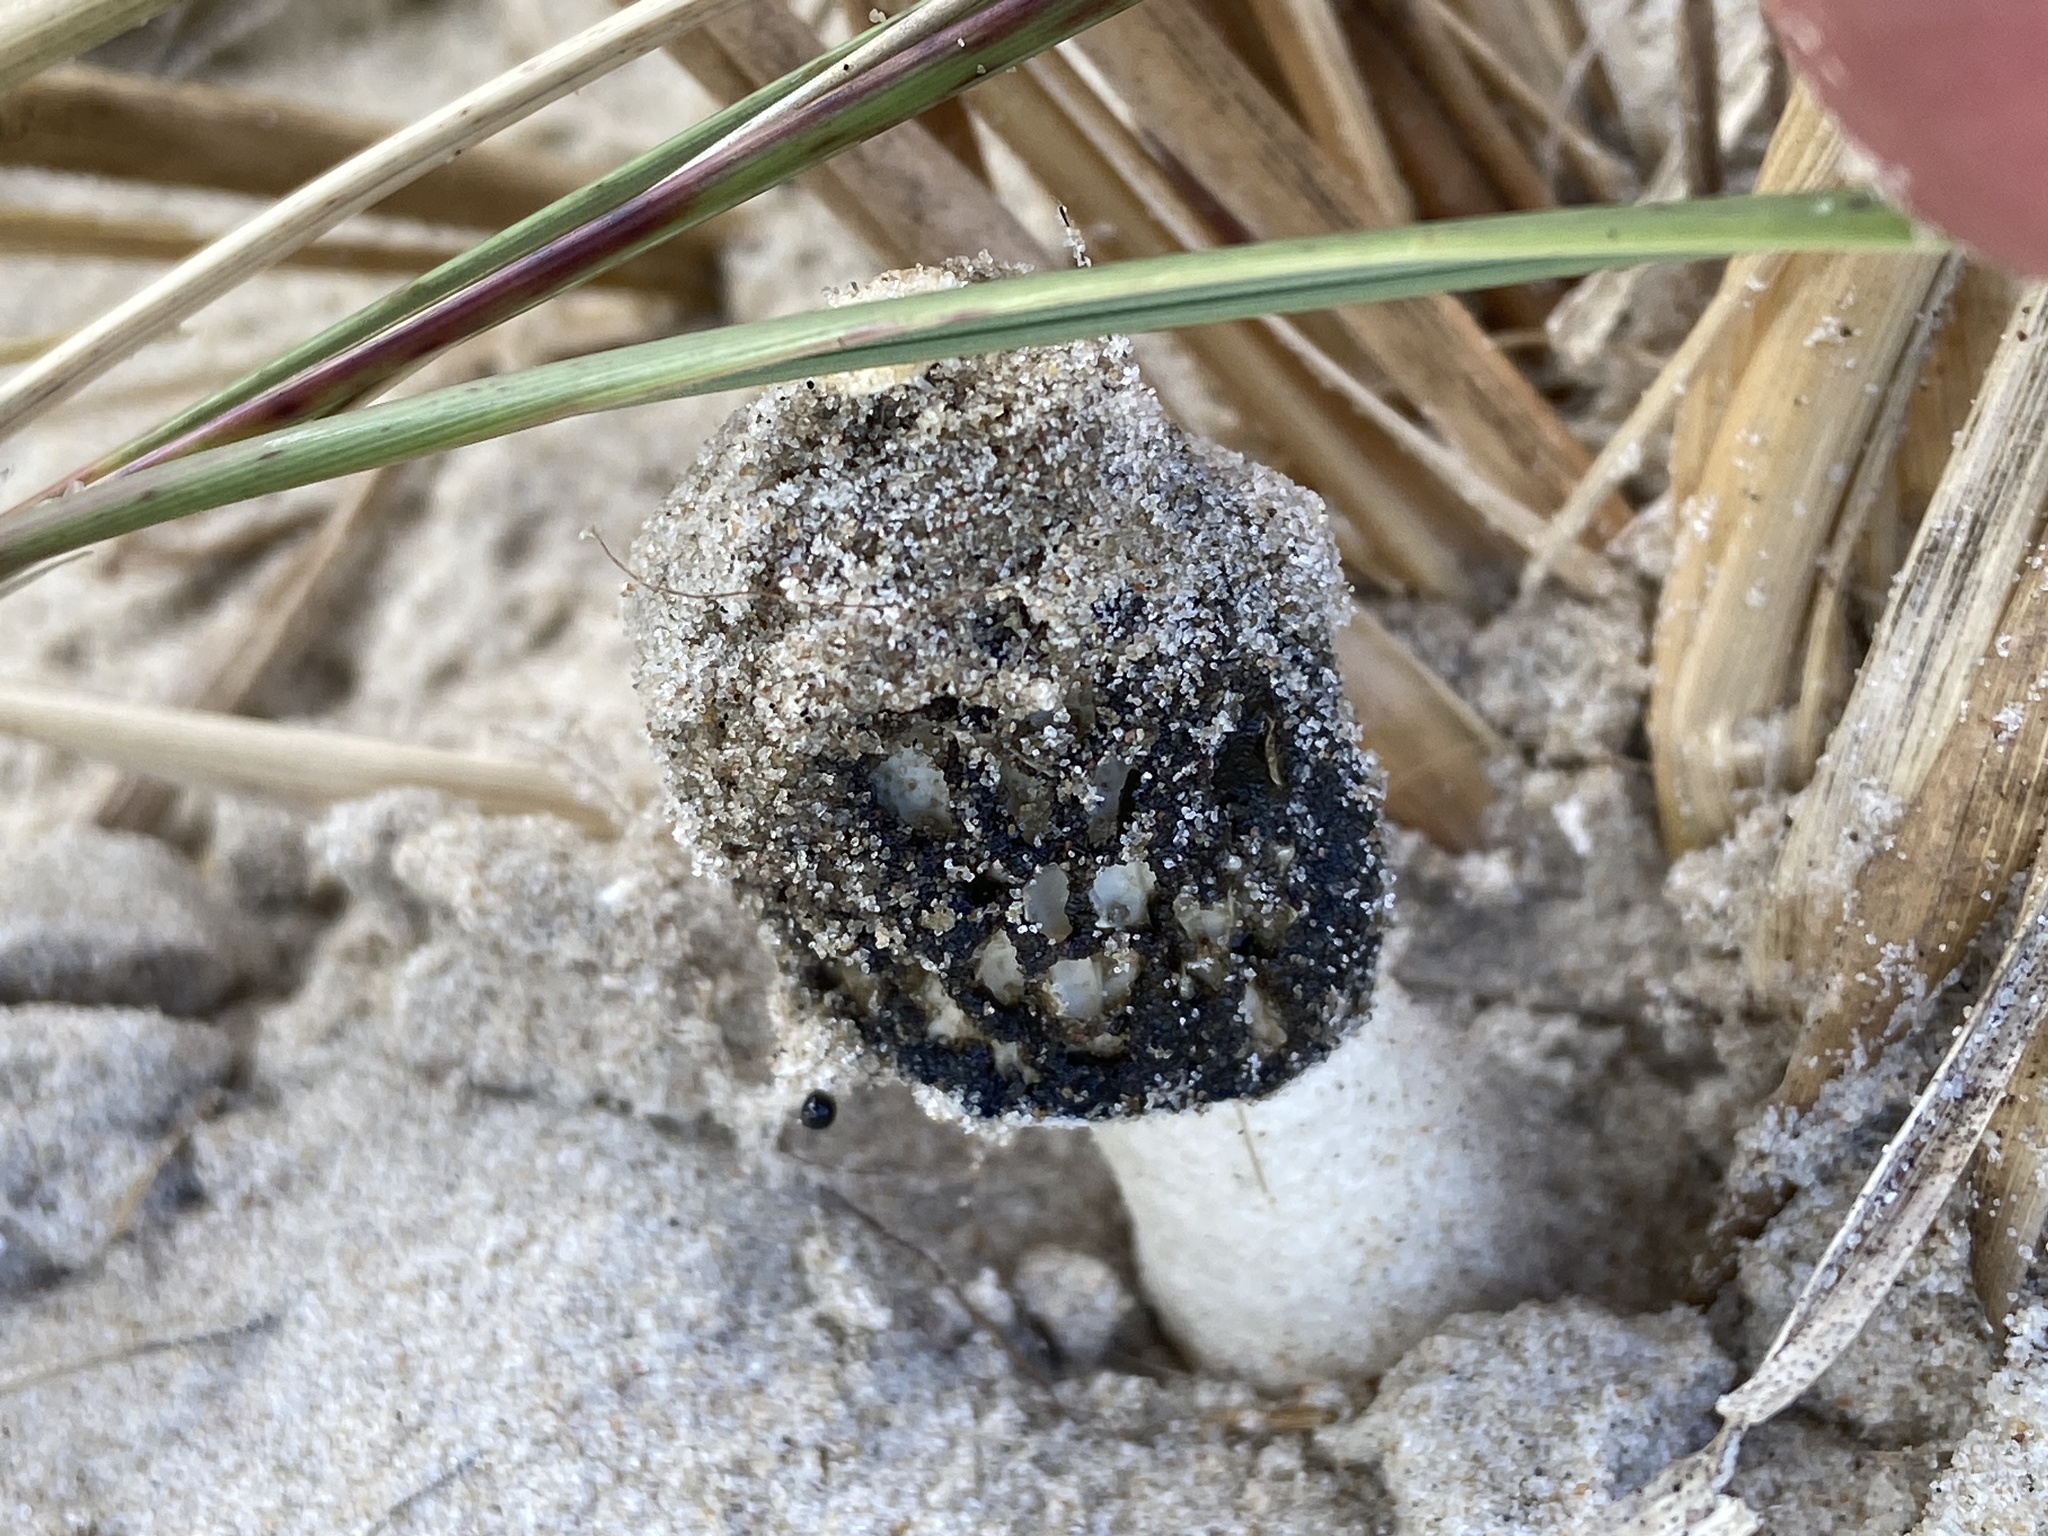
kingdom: Fungi
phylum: Basidiomycota
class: Agaricomycetes
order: Phallales
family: Phallaceae
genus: Phallus
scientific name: Phallus hadriani
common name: Sand stinkhorn
